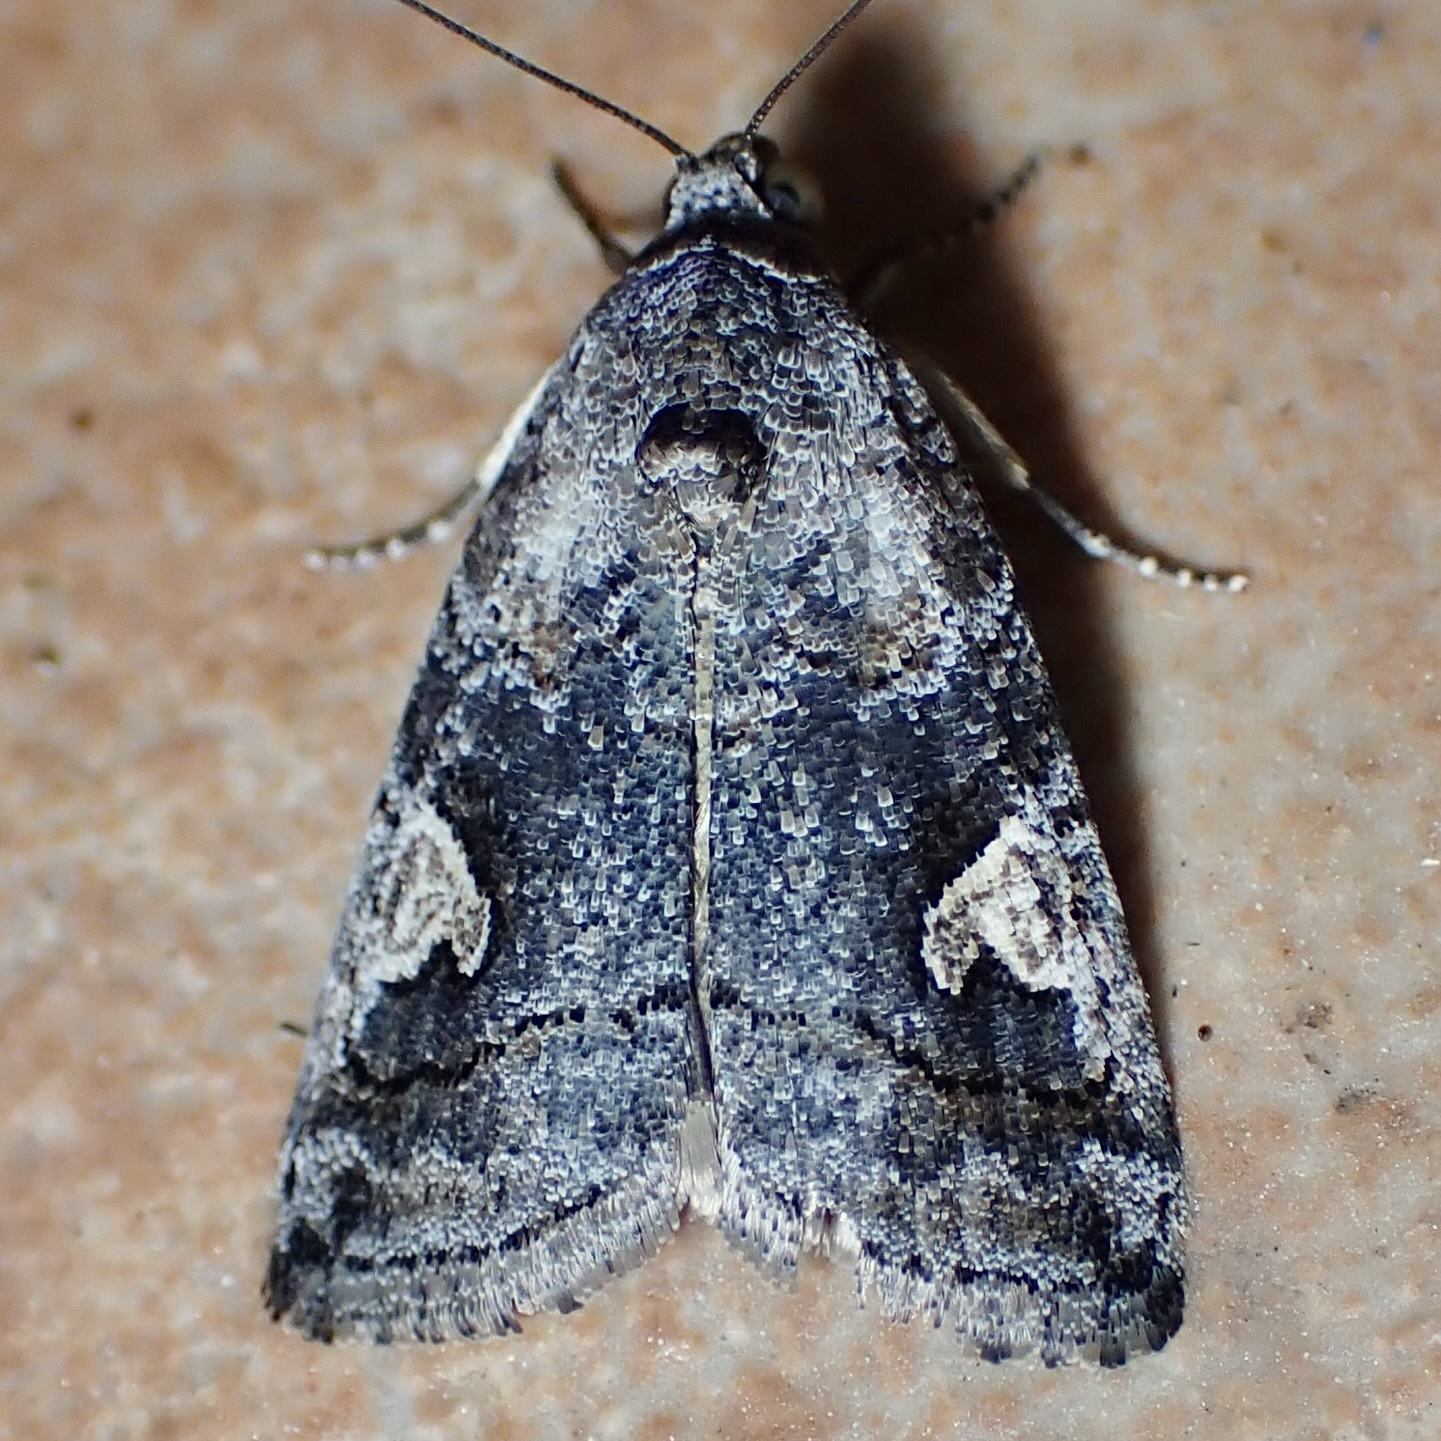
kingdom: Animalia
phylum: Arthropoda
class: Insecta
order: Lepidoptera
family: Noctuidae
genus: Metaponpneumata
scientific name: Metaponpneumata rogenhoferi
